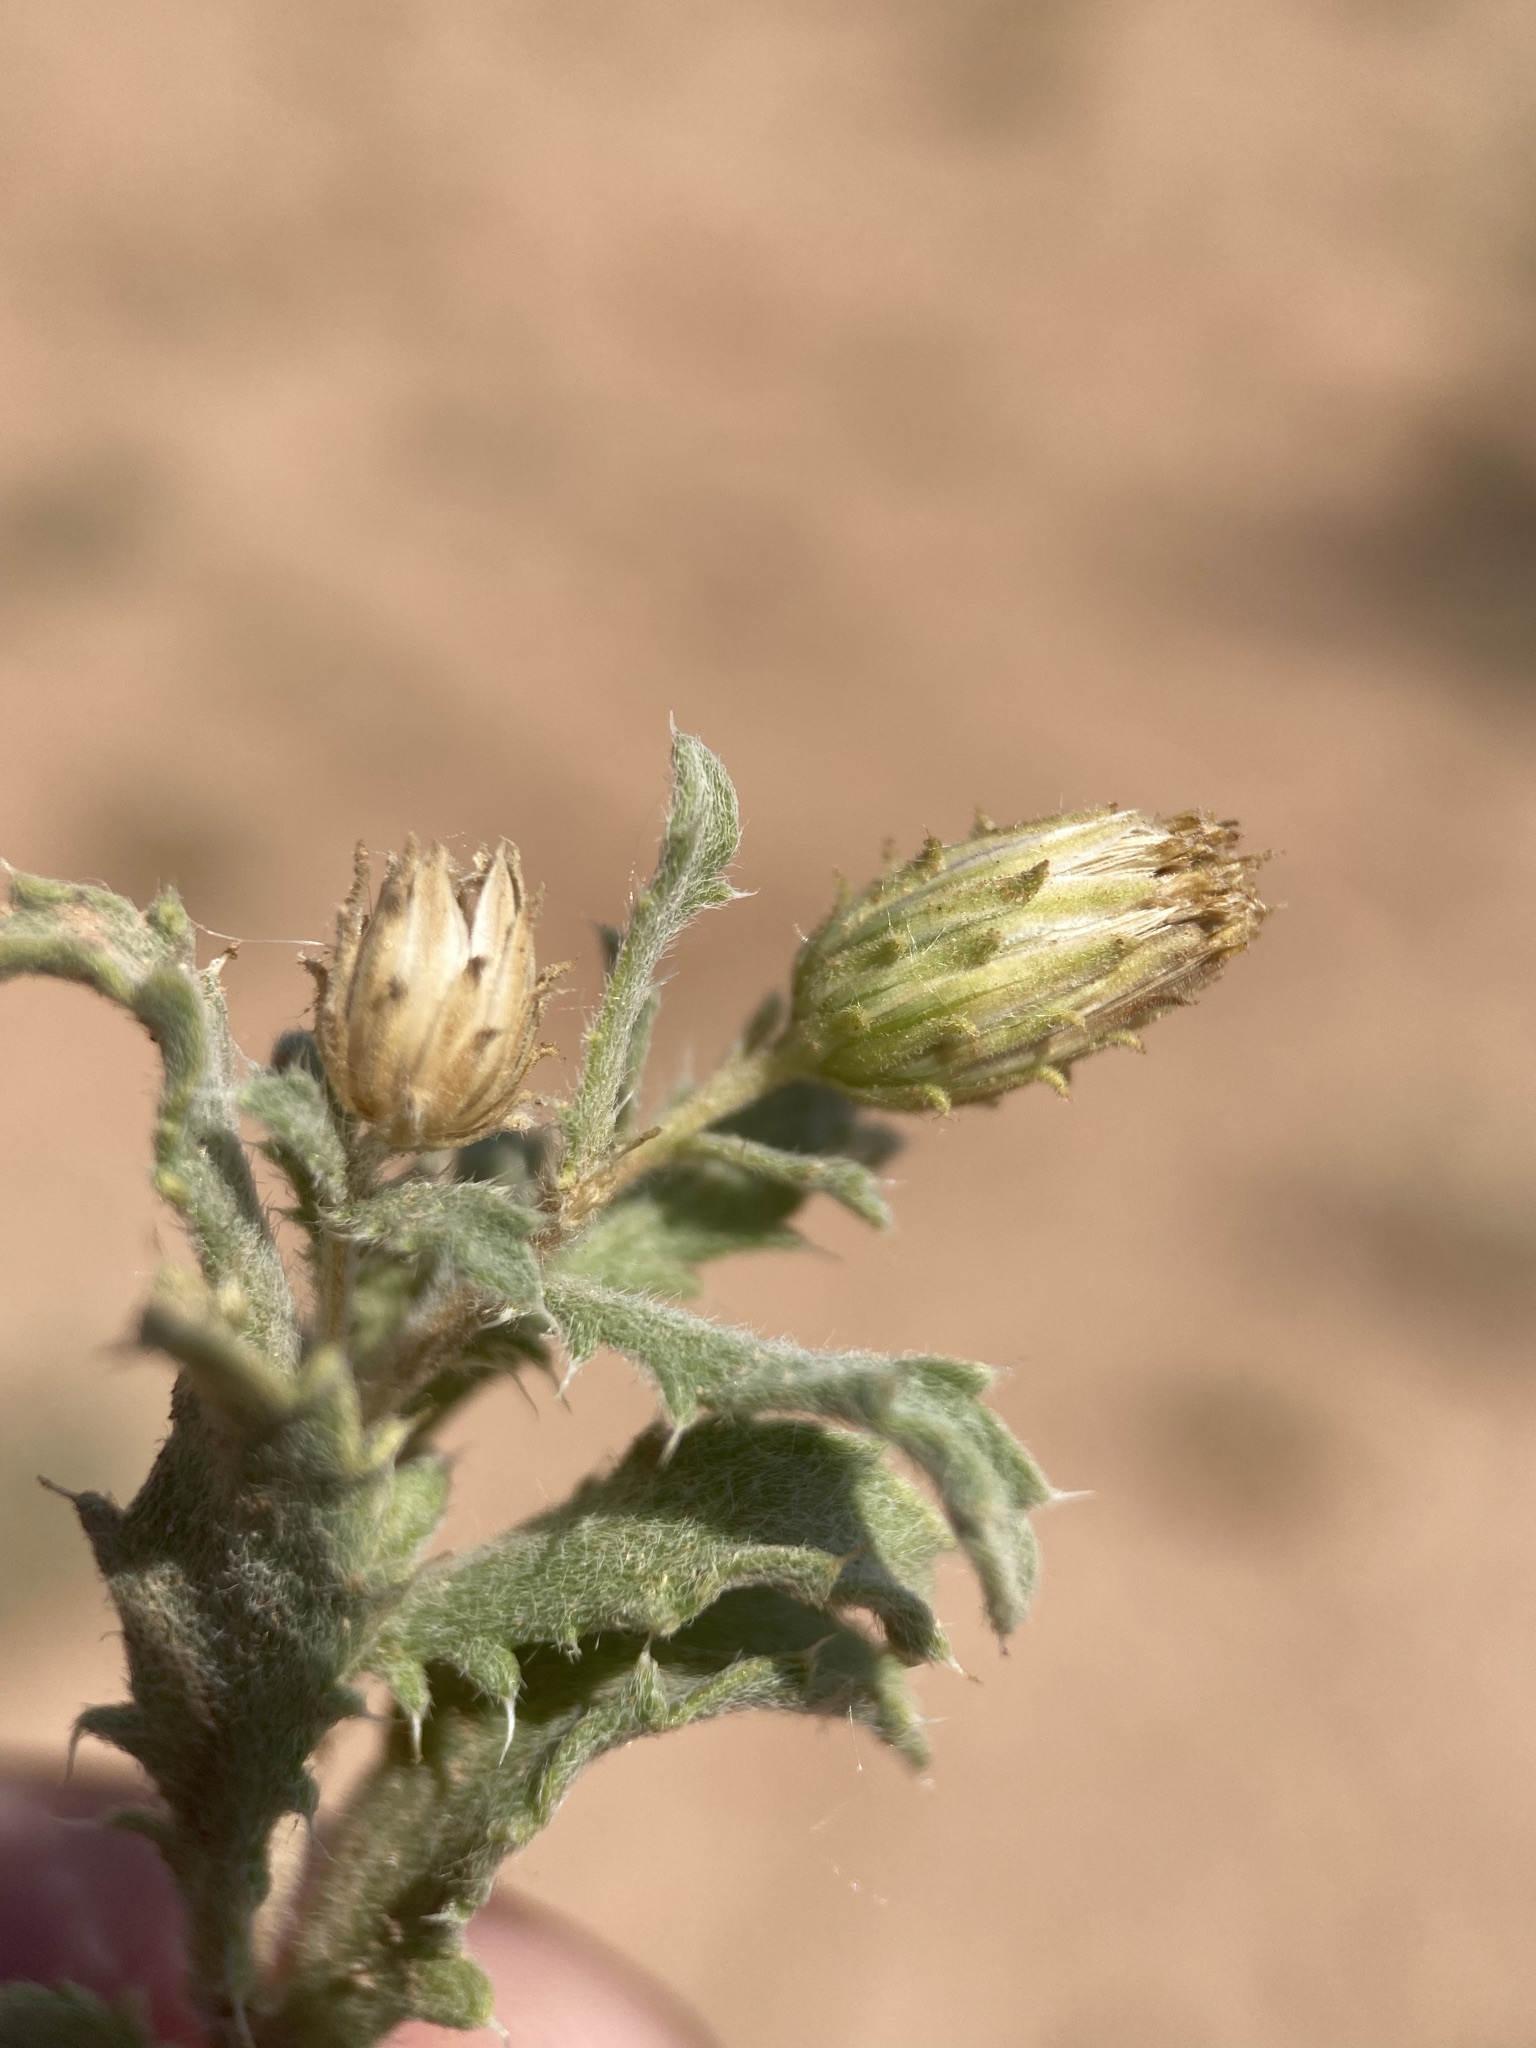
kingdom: Plantae
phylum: Tracheophyta
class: Magnoliopsida
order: Asterales
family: Asteraceae
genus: Xanthisma
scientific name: Xanthisma grindelioides
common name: Goldenweed
